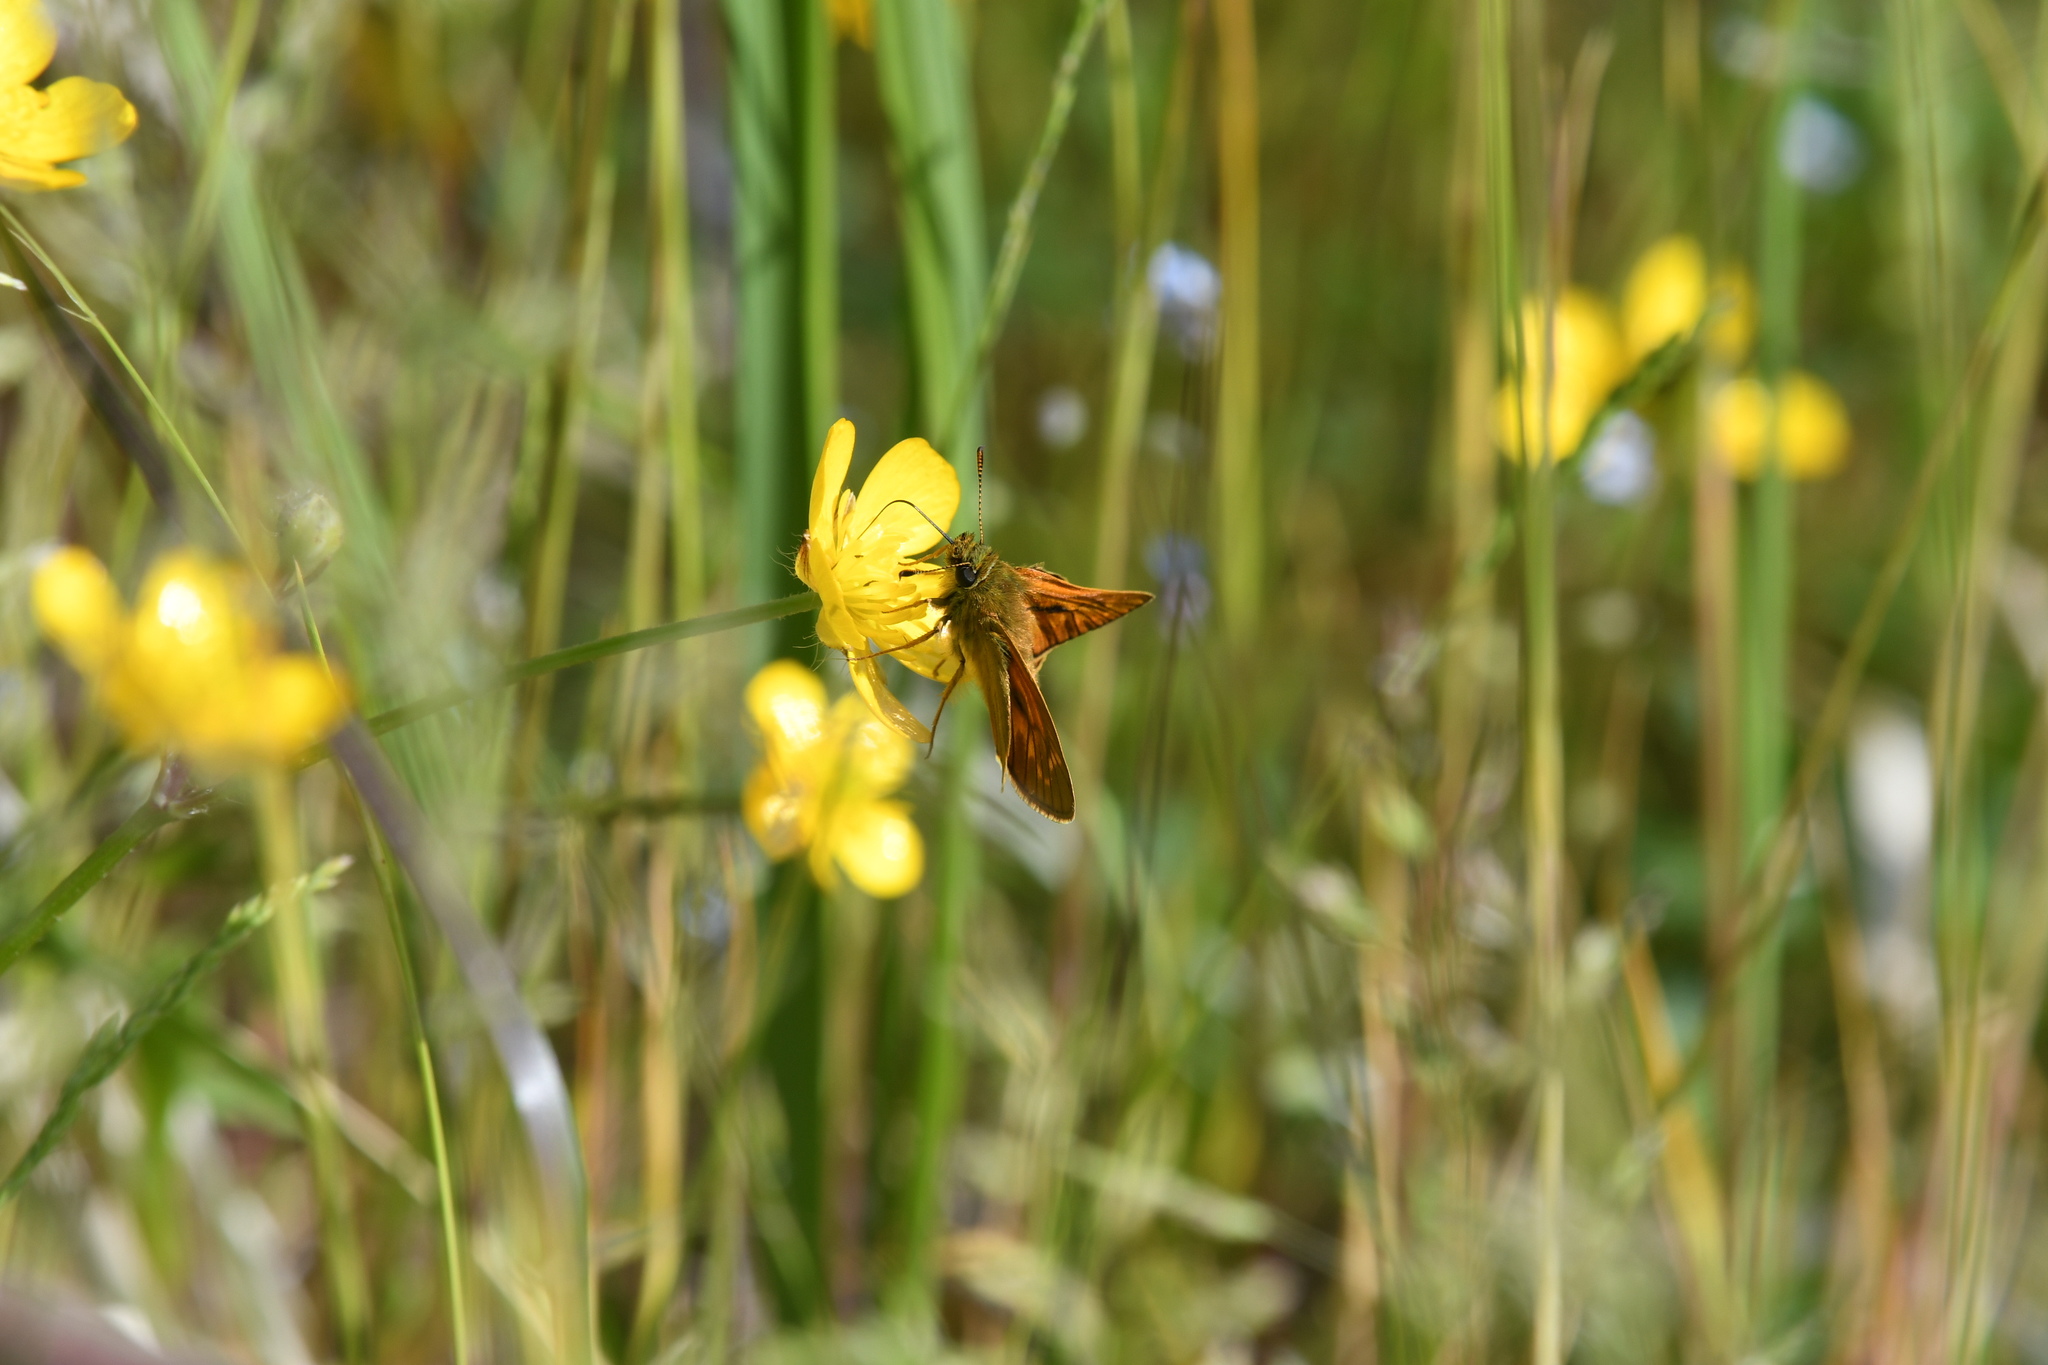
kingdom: Animalia
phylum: Arthropoda
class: Insecta
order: Lepidoptera
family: Hesperiidae
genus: Ochlodes
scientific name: Ochlodes venata
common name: Large skipper
